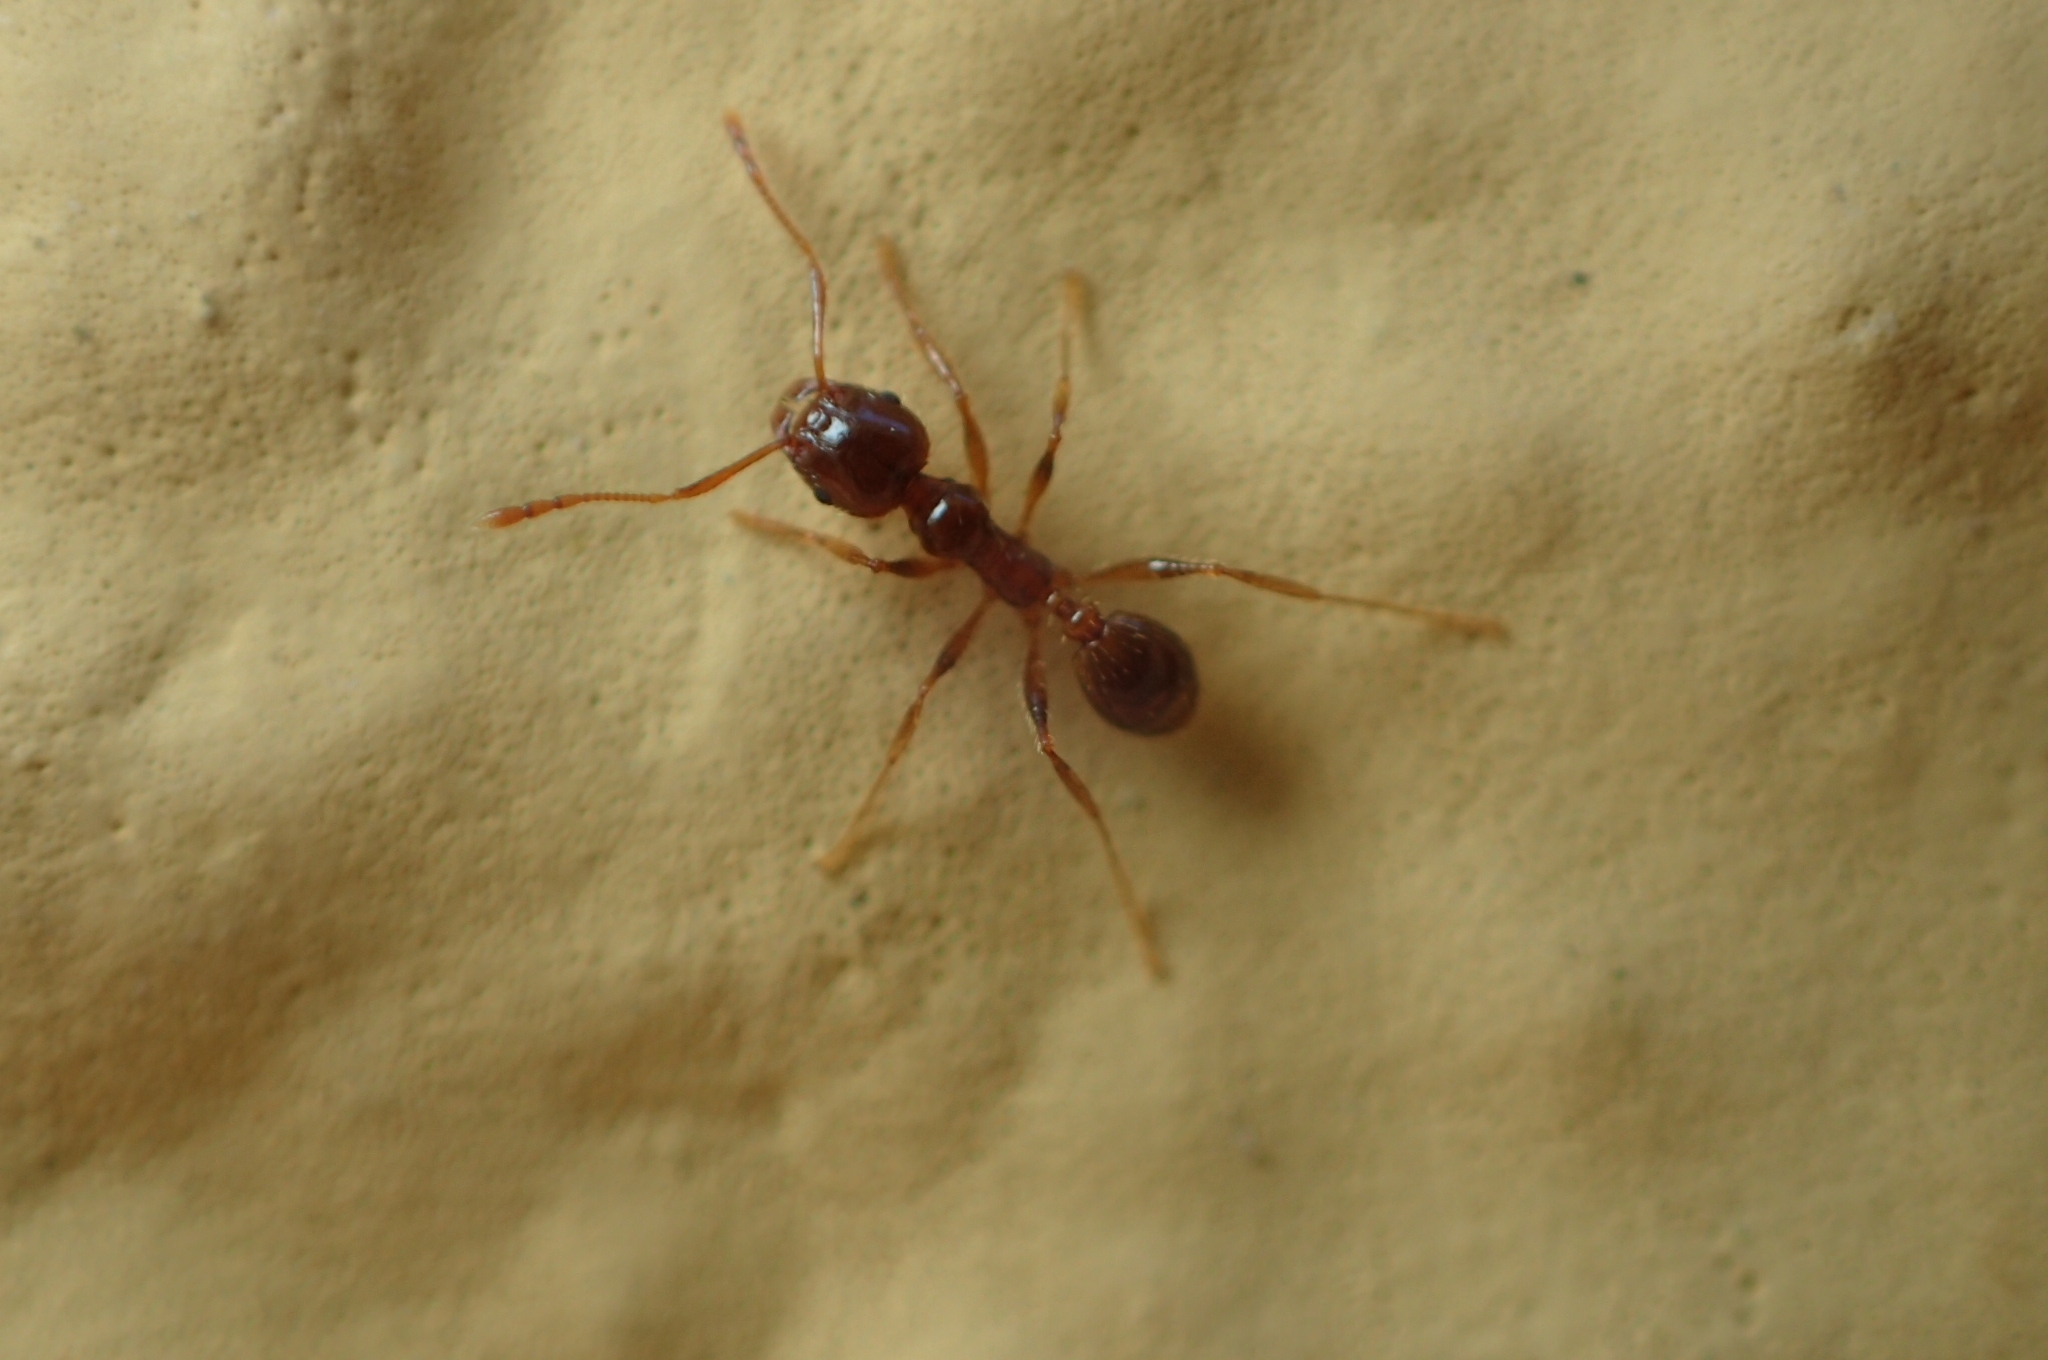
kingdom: Animalia
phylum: Arthropoda
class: Insecta
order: Hymenoptera
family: Formicidae
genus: Pheidole
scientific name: Pheidole pallidula
